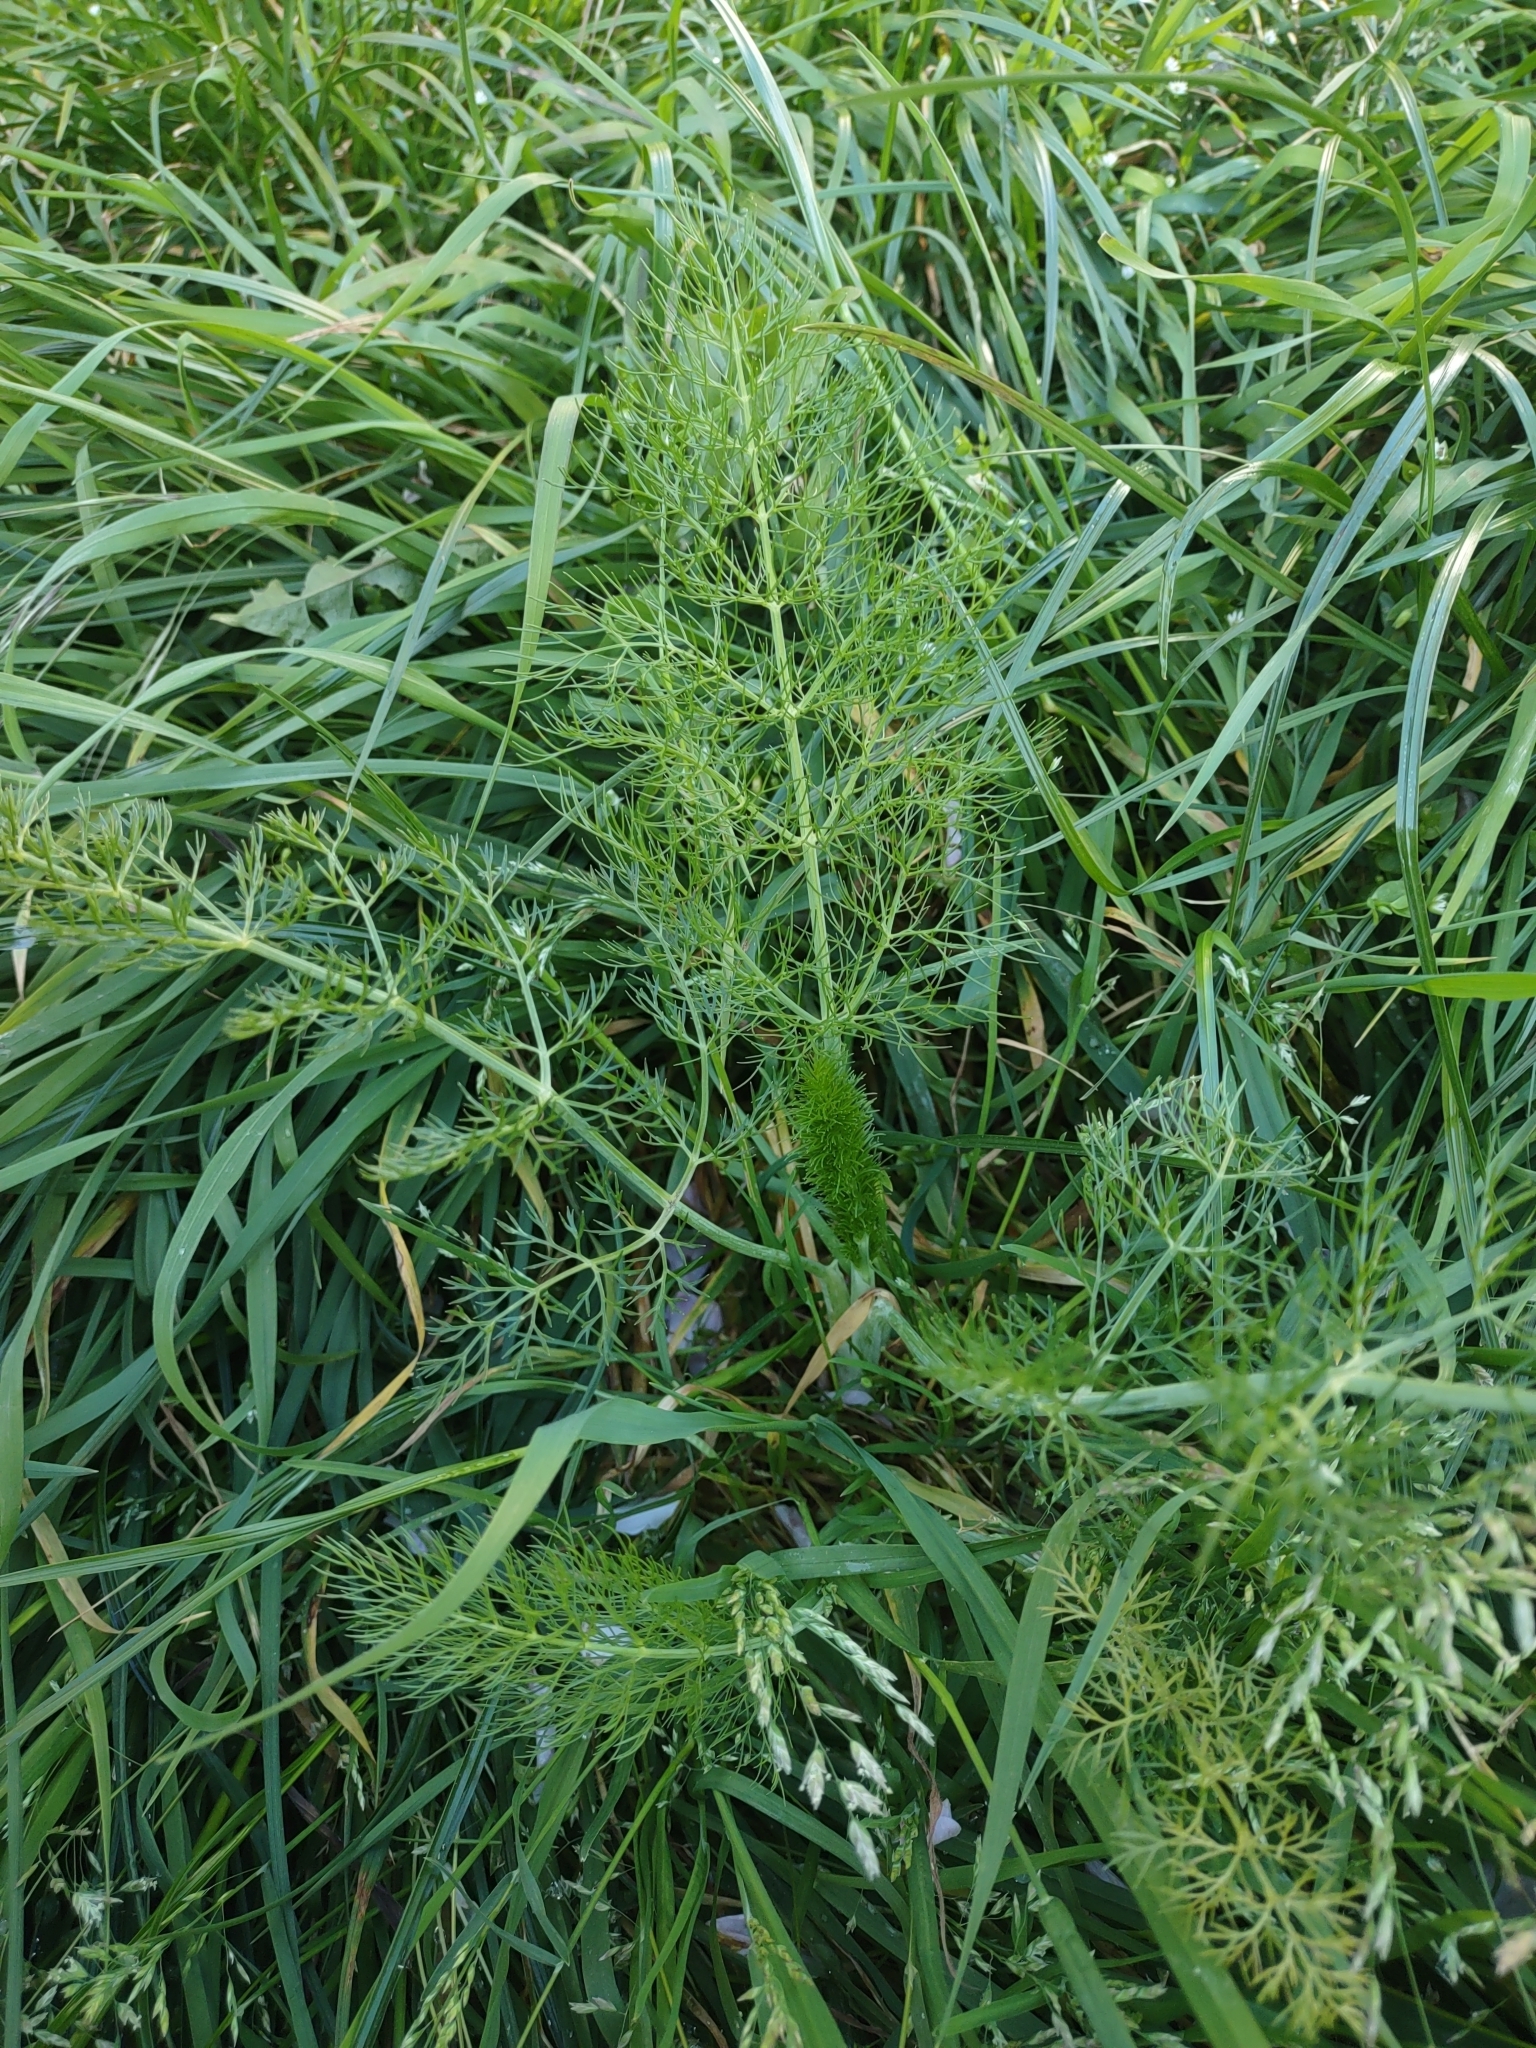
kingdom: Plantae
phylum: Tracheophyta
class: Magnoliopsida
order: Apiales
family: Apiaceae
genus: Foeniculum
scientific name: Foeniculum vulgare
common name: Fennel
